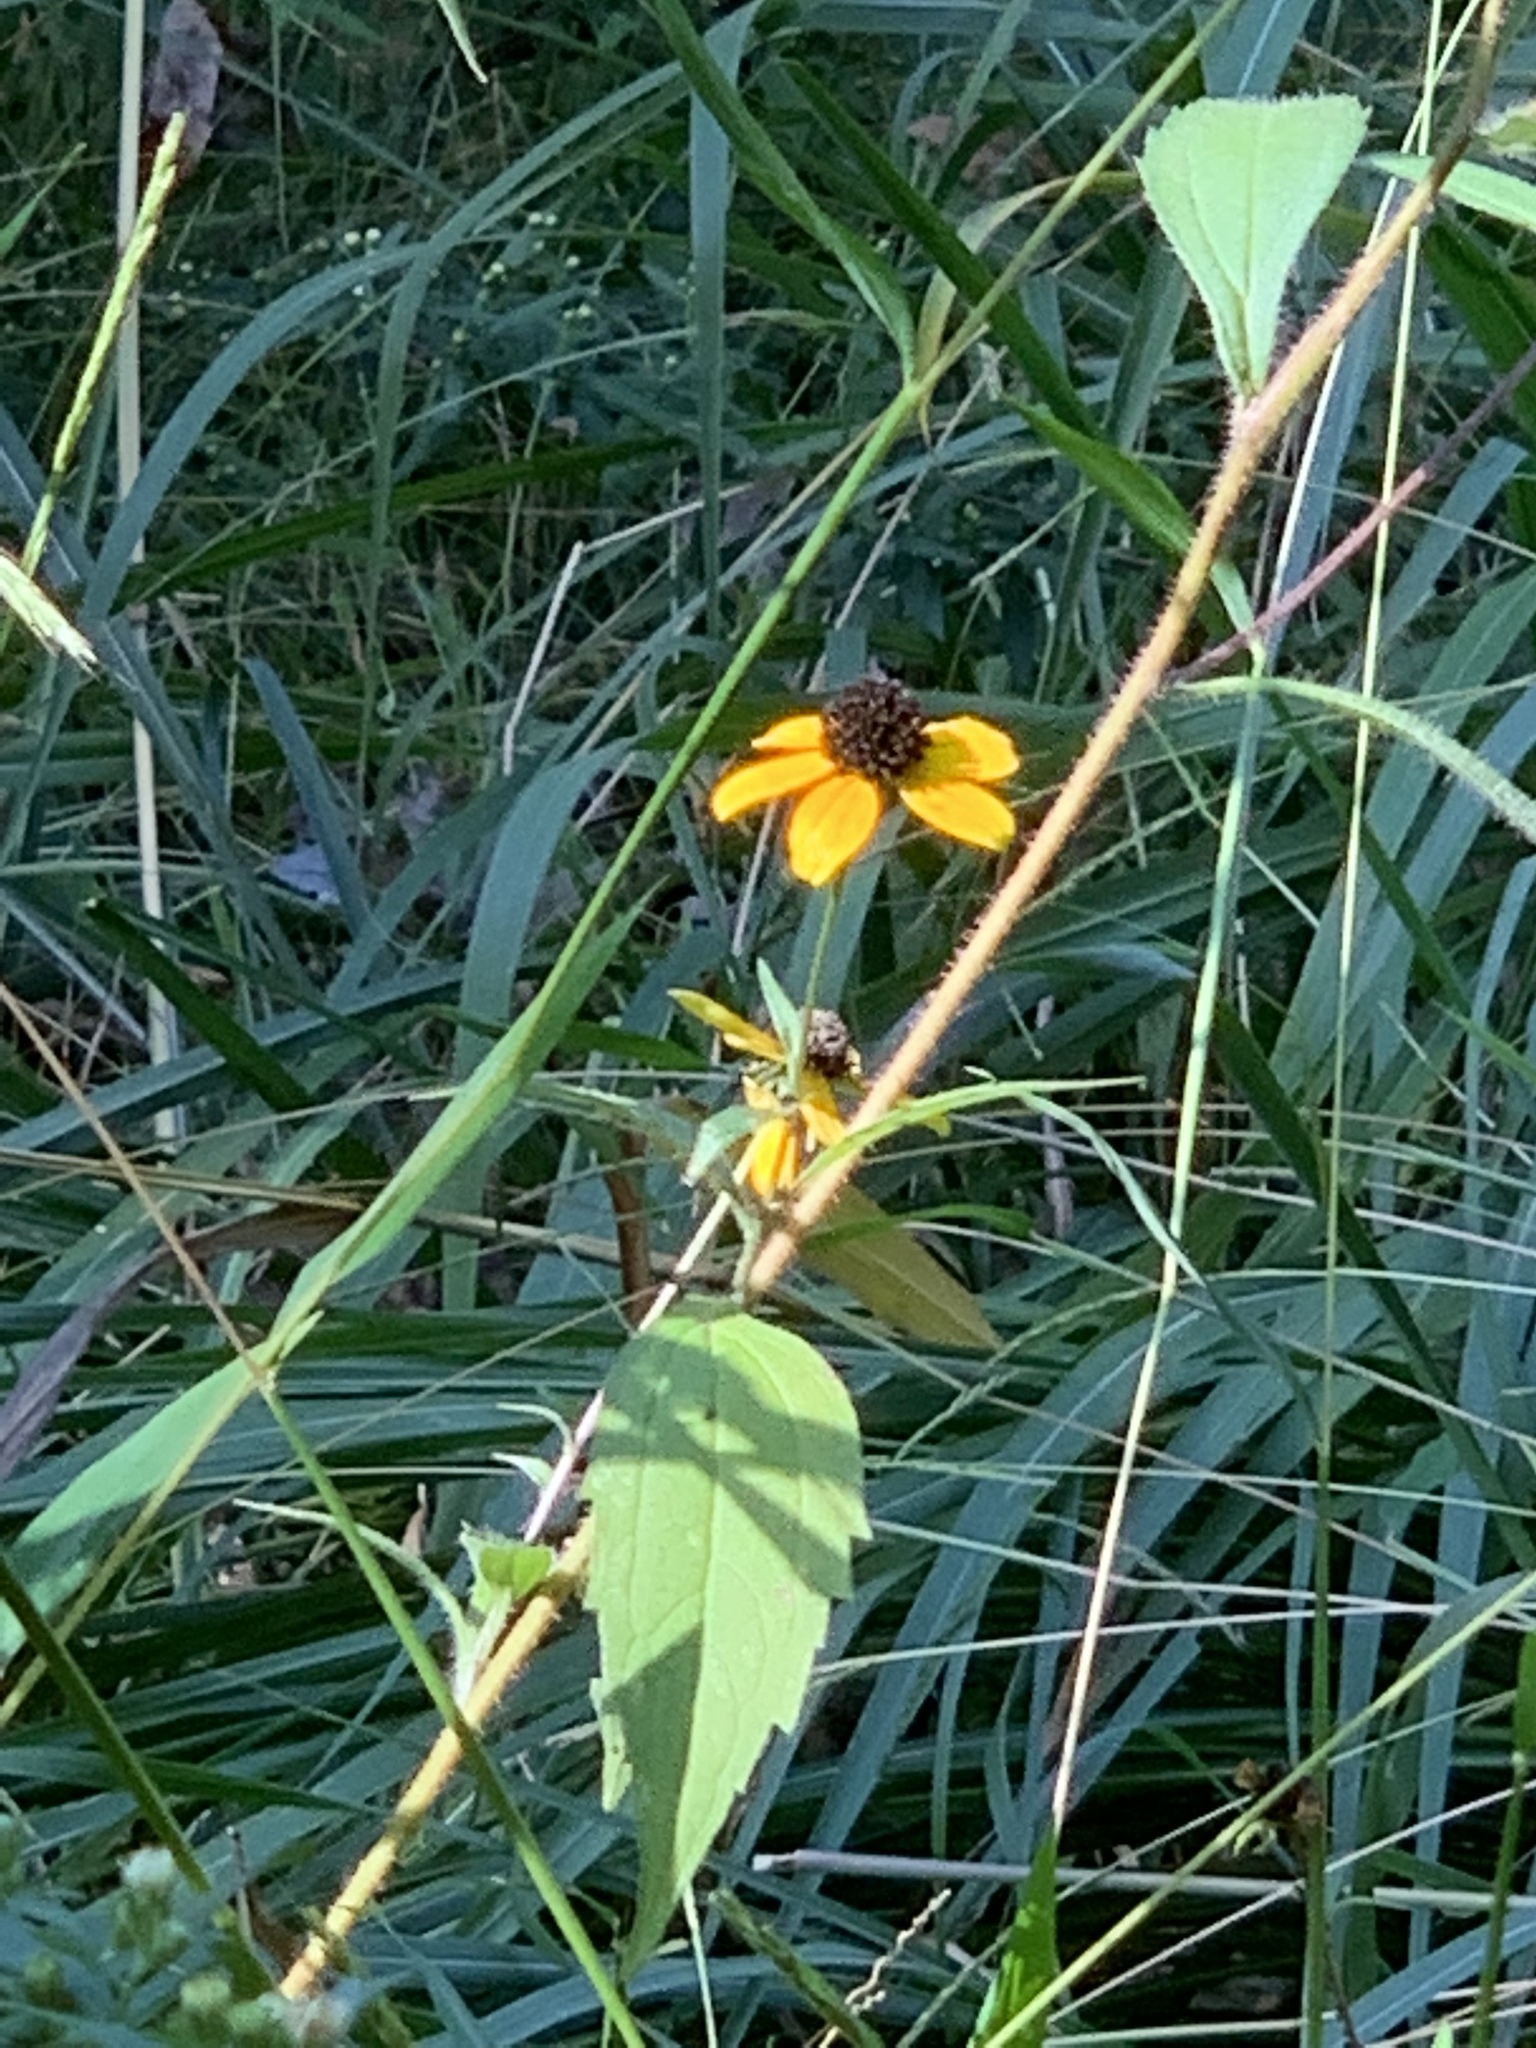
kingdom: Plantae
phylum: Tracheophyta
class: Magnoliopsida
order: Asterales
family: Asteraceae
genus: Rudbeckia
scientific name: Rudbeckia triloba
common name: Thin-leaved coneflower
